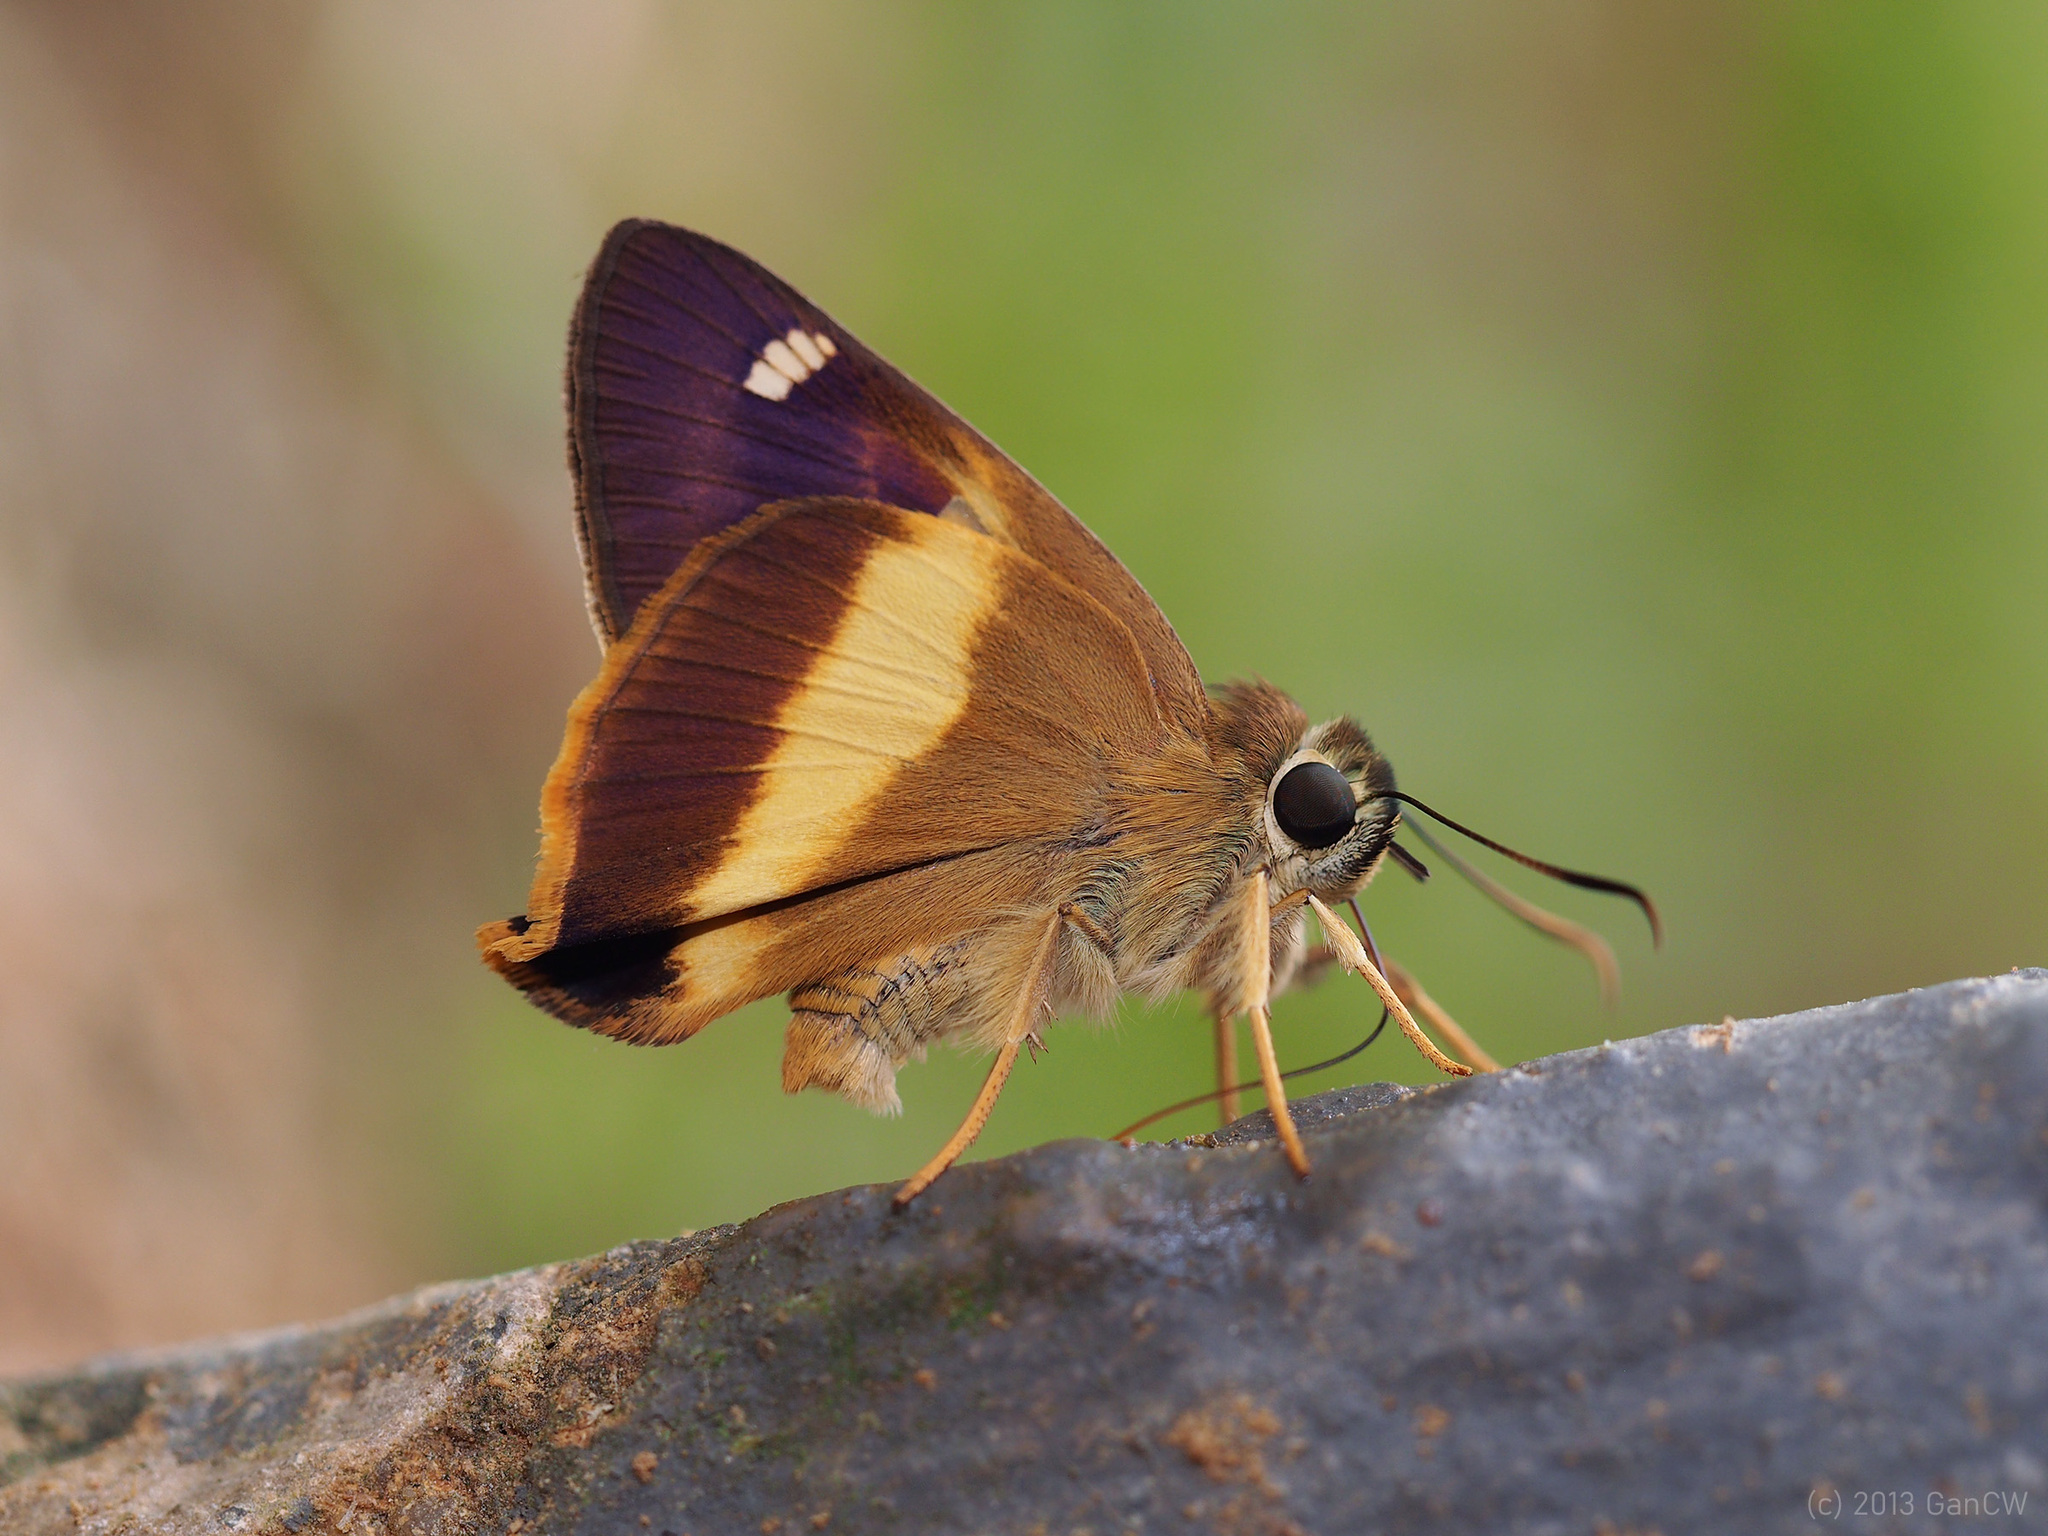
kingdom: Animalia
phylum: Arthropoda
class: Insecta
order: Lepidoptera
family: Hesperiidae
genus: Hasora
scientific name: Hasora schoenherr
